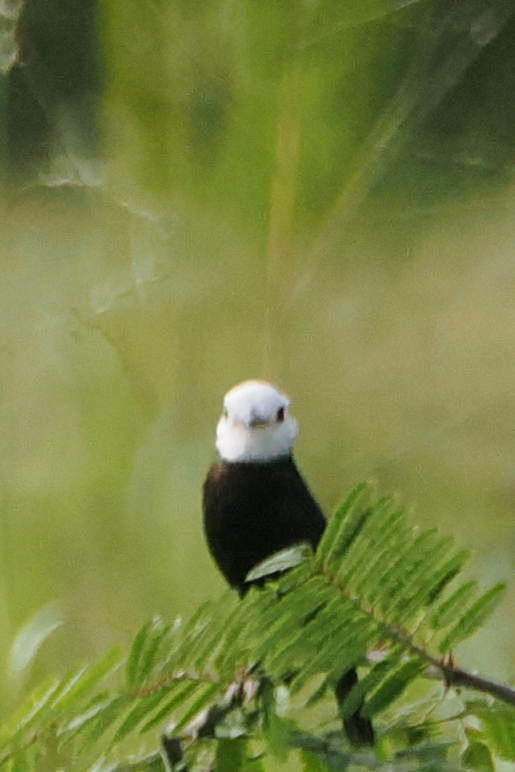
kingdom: Animalia
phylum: Chordata
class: Aves
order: Passeriformes
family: Tyrannidae
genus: Arundinicola
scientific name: Arundinicola leucocephala
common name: White-headed marsh tyrant
